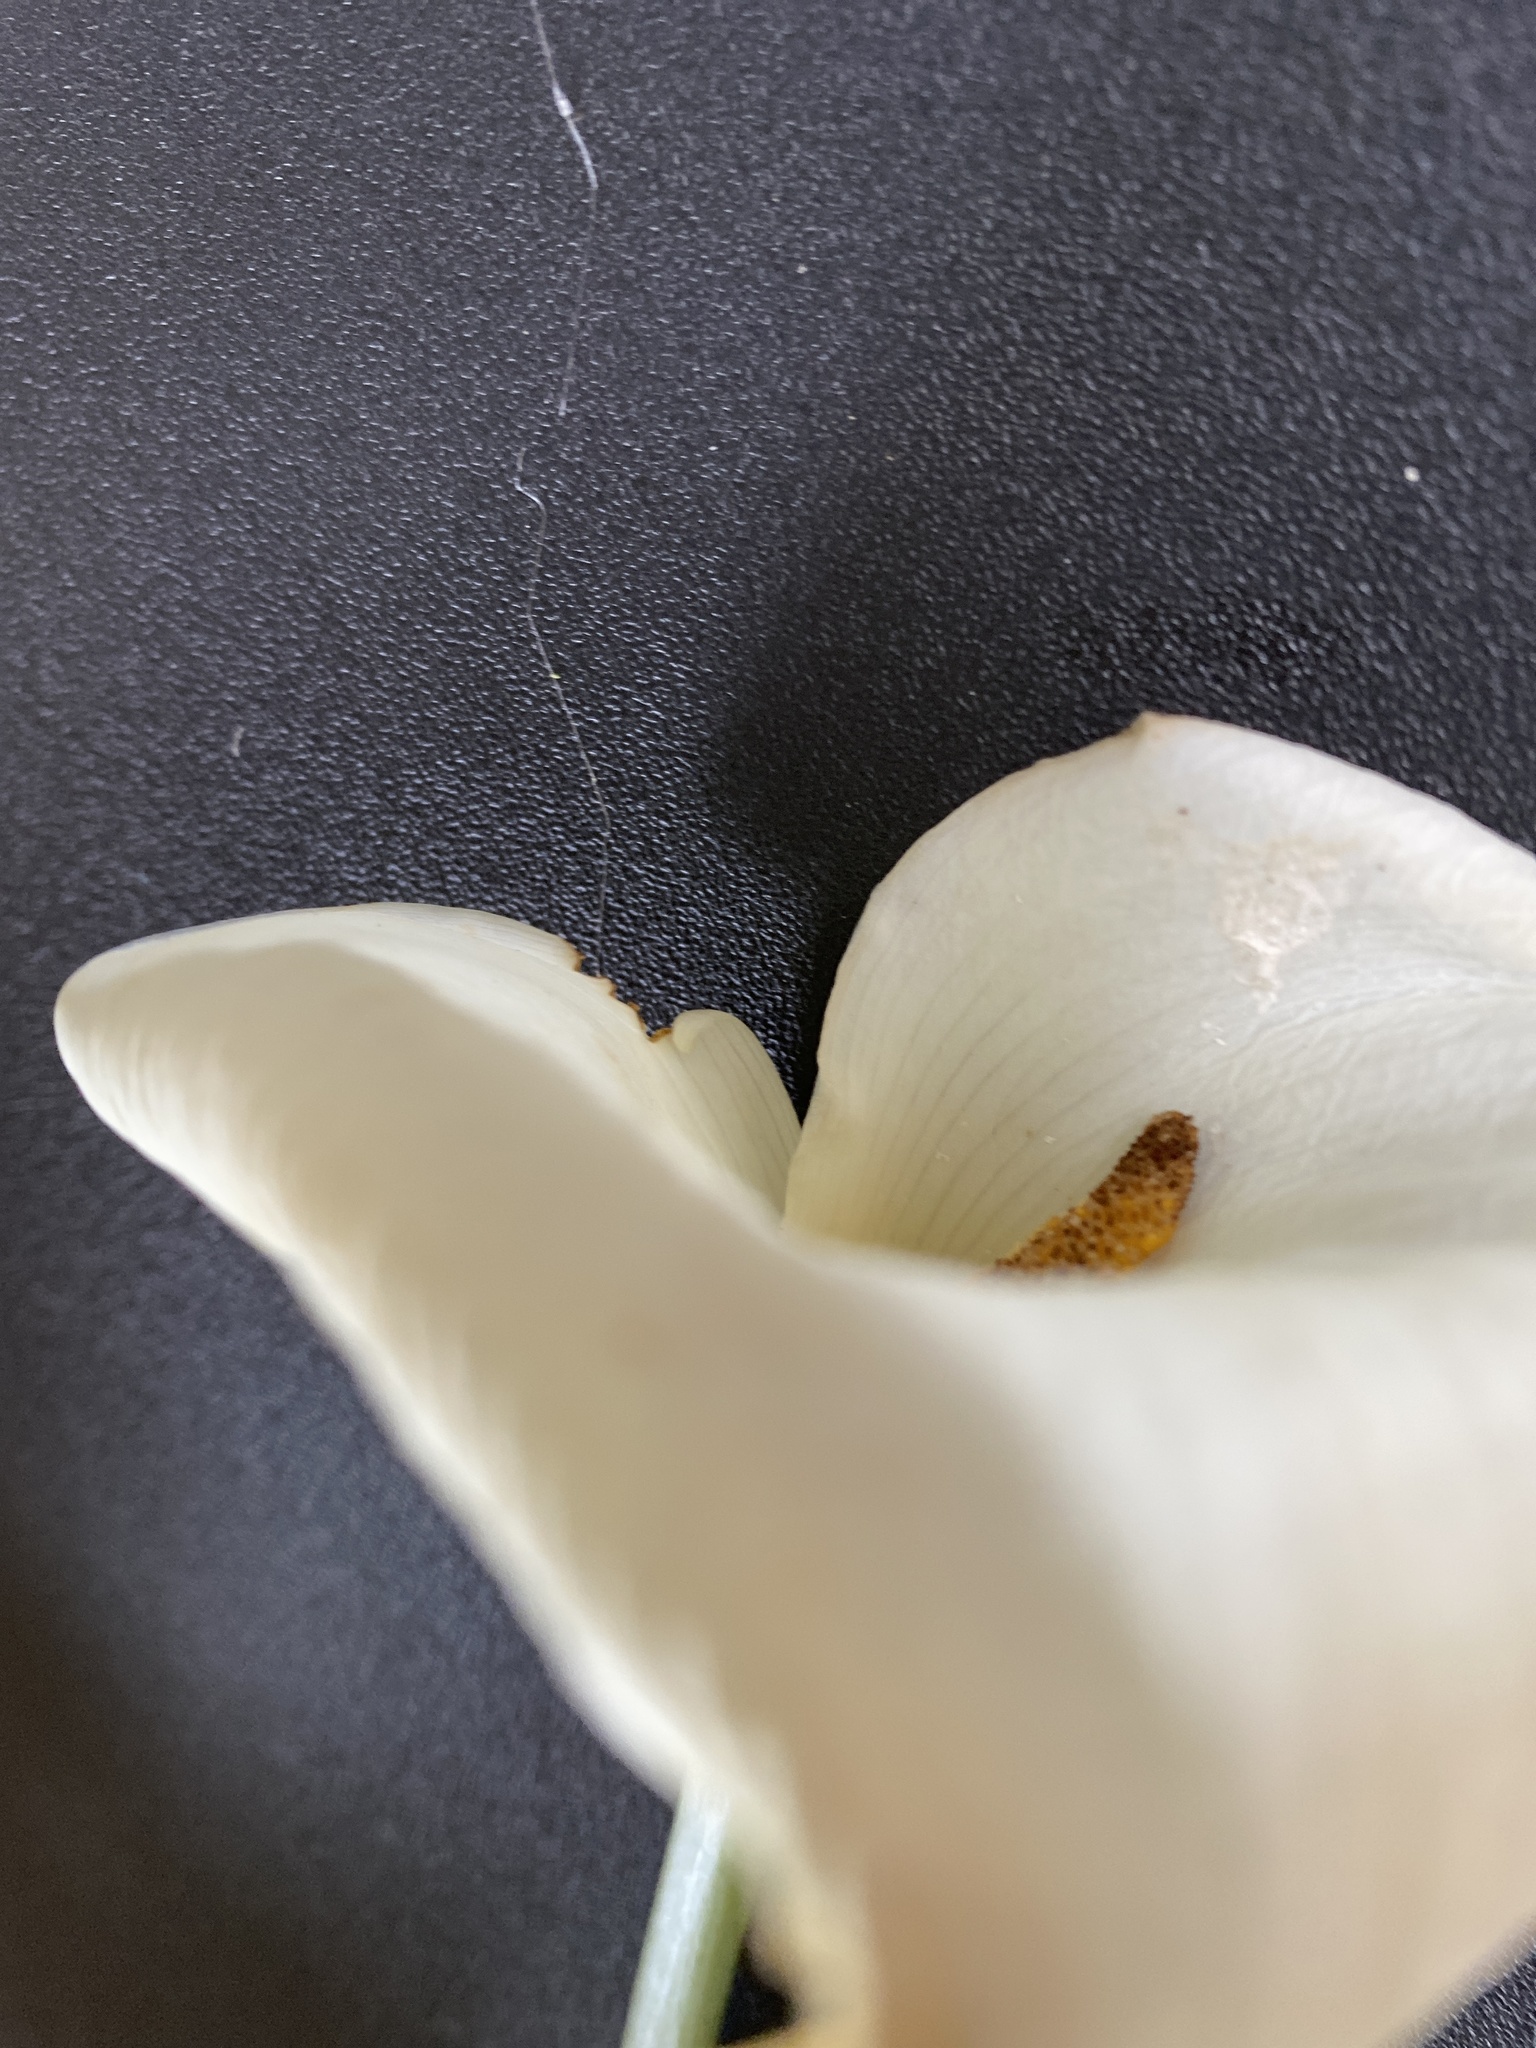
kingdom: Plantae
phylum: Tracheophyta
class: Liliopsida
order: Alismatales
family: Araceae
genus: Zantedeschia
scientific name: Zantedeschia aethiopica
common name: Altar-lily
